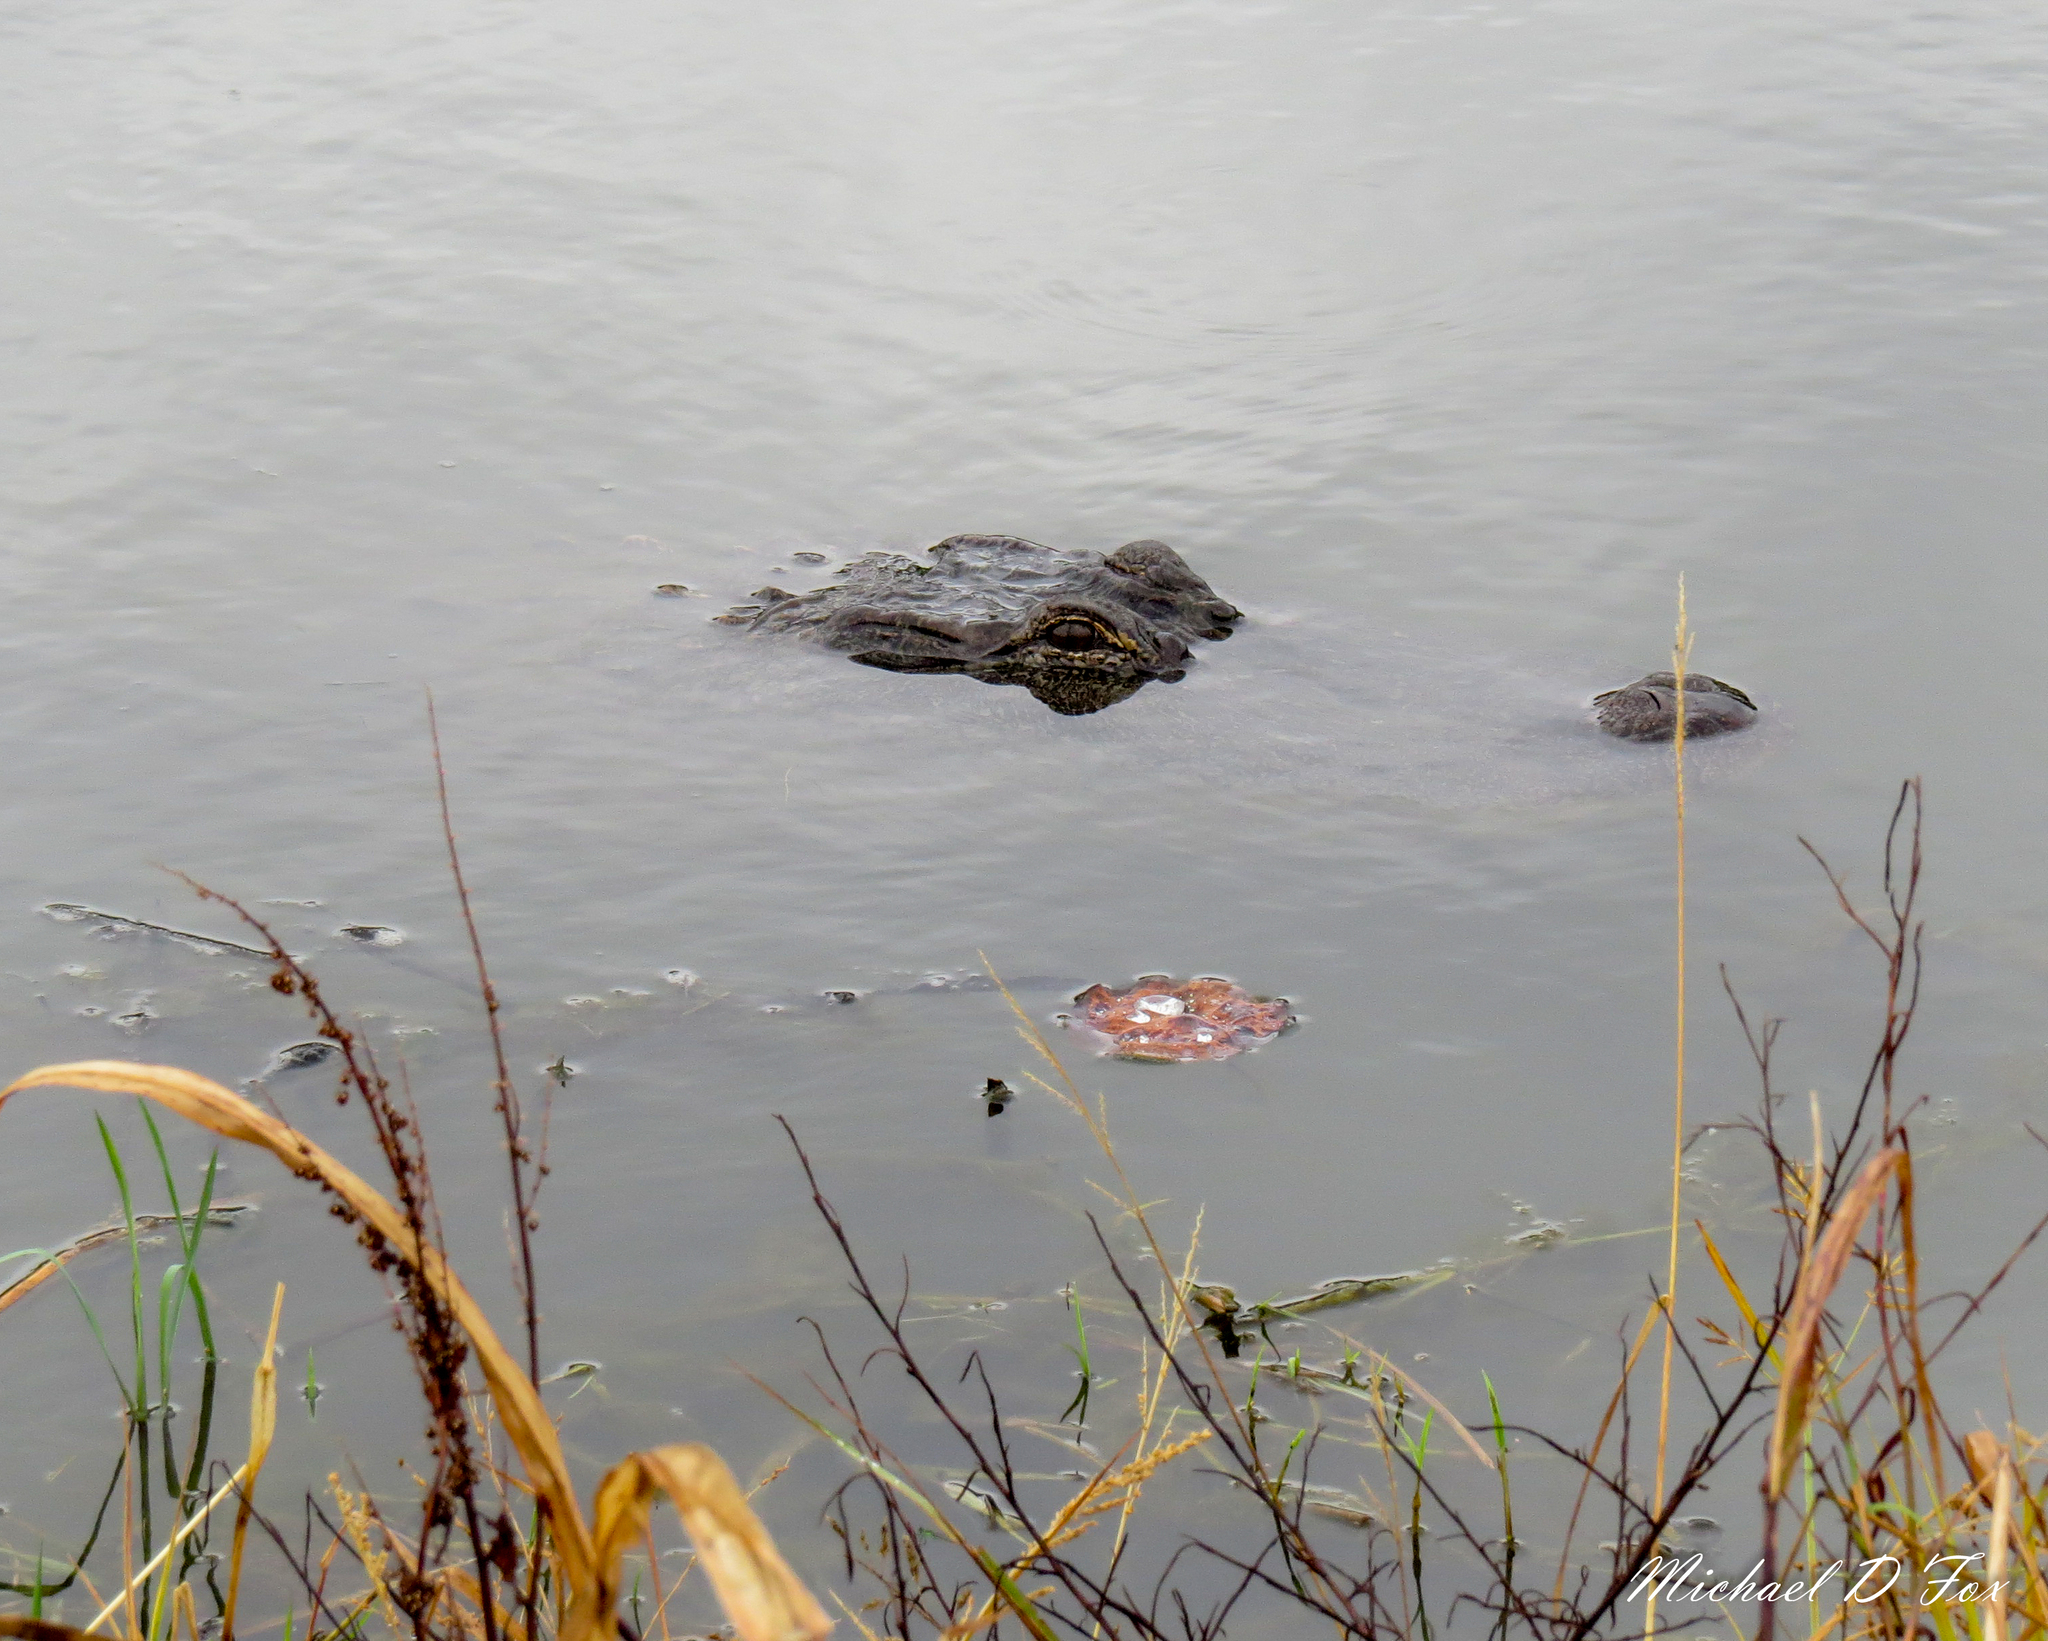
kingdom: Animalia
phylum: Chordata
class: Crocodylia
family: Alligatoridae
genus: Alligator
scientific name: Alligator mississippiensis
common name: American alligator
